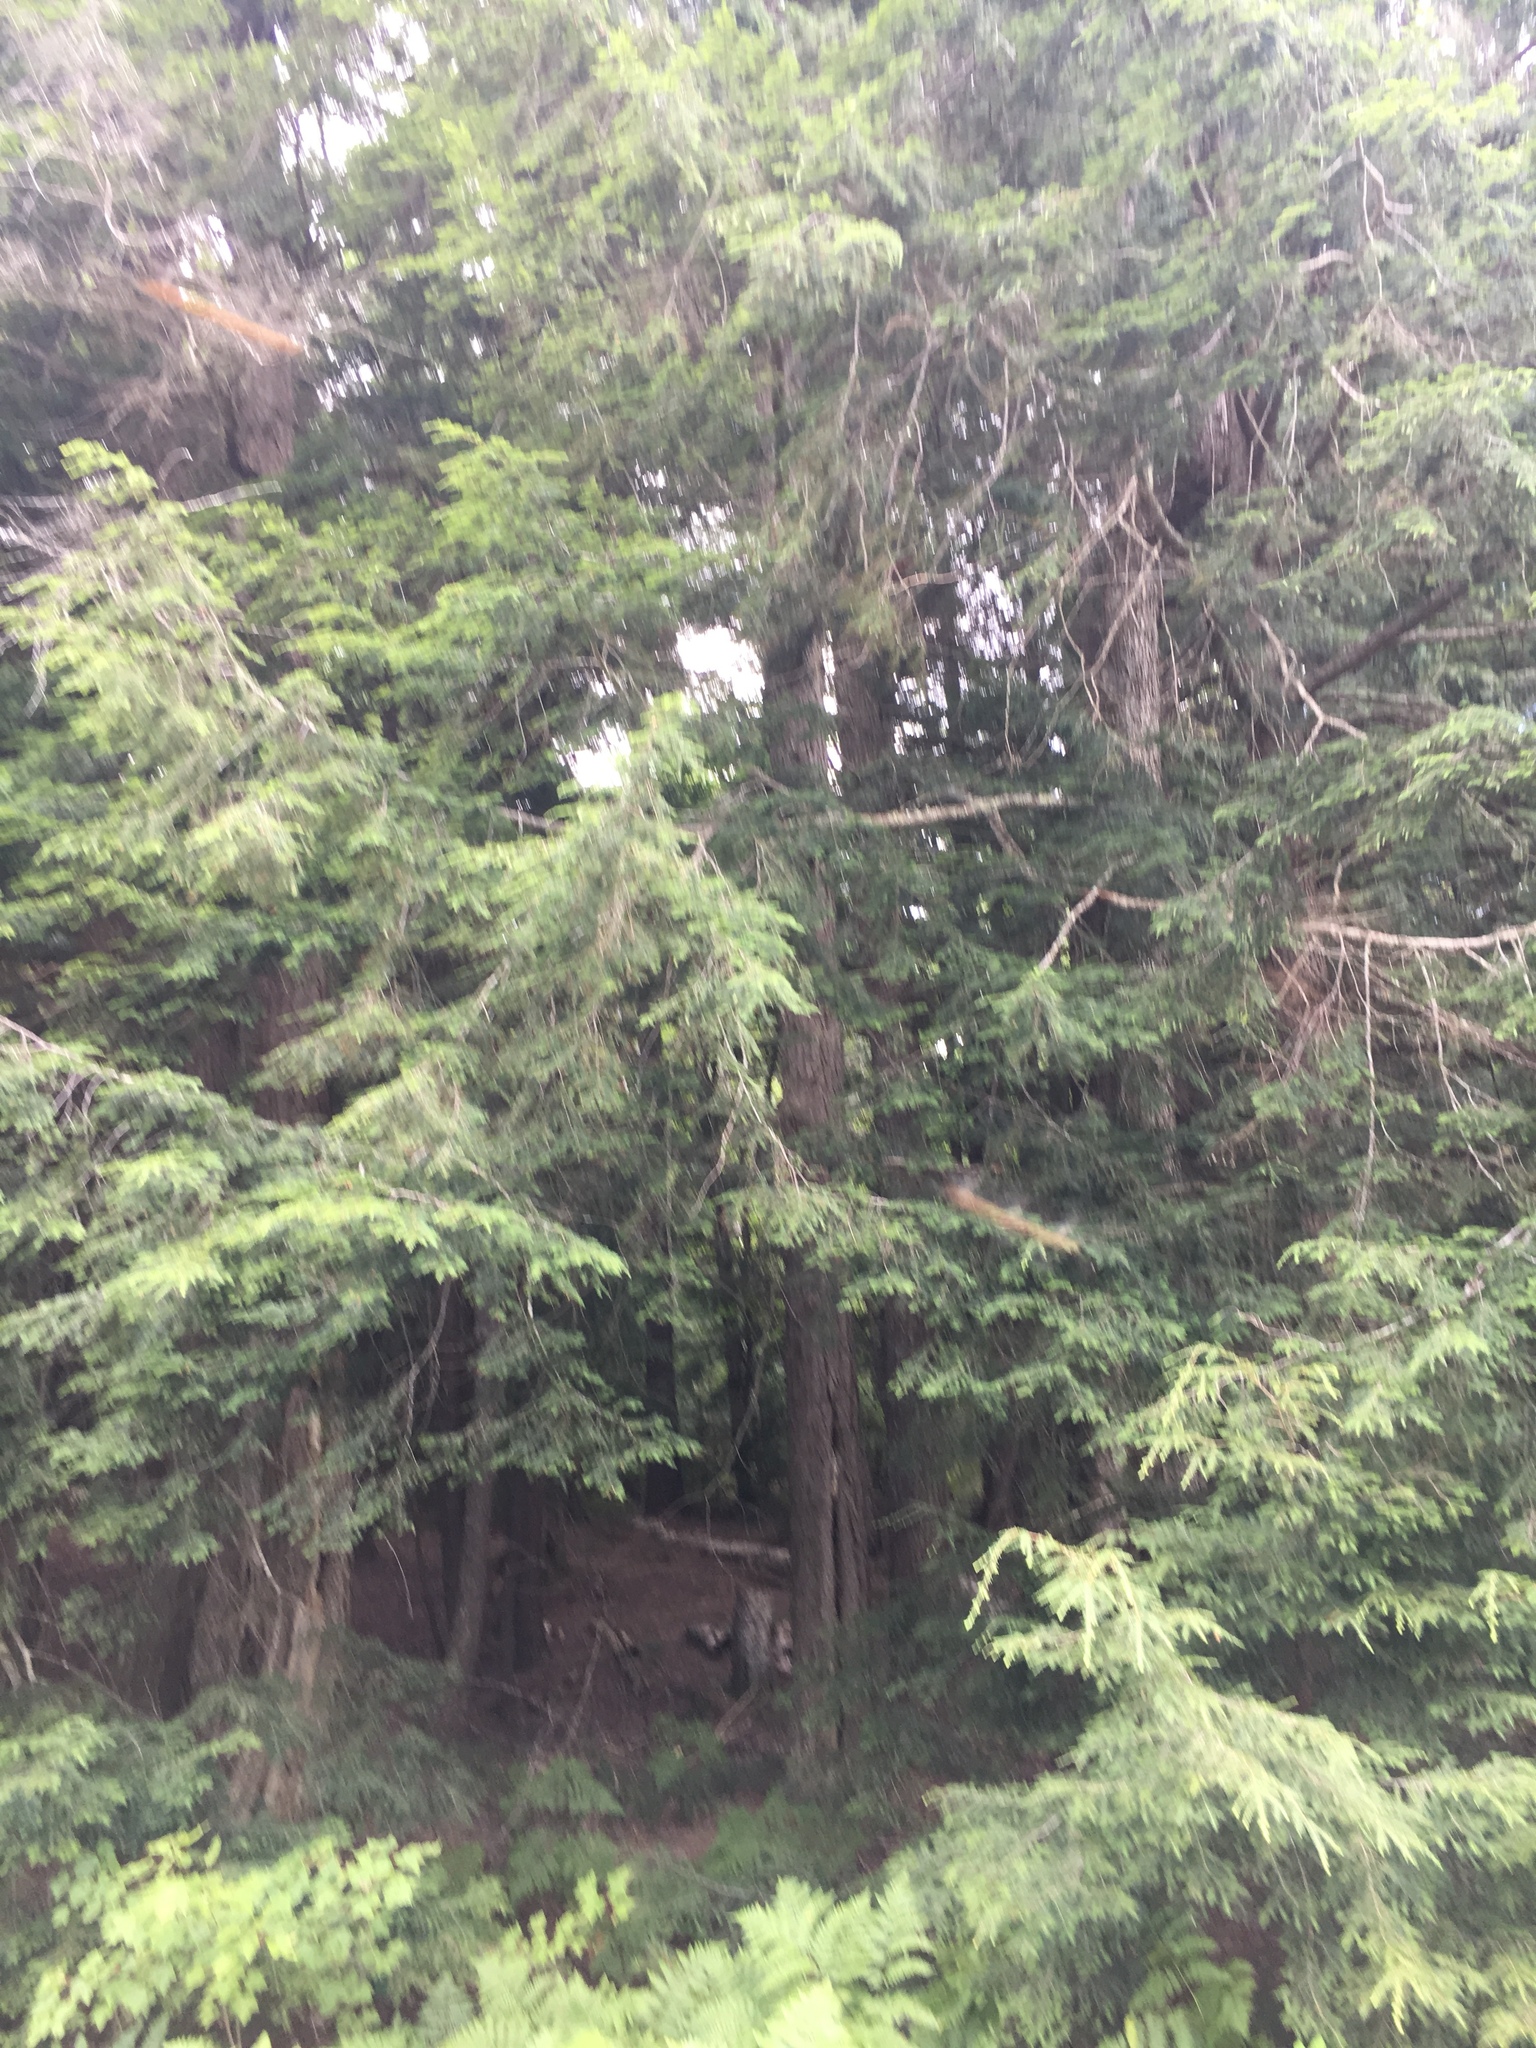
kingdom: Plantae
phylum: Tracheophyta
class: Pinopsida
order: Pinales
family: Pinaceae
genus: Tsuga
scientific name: Tsuga canadensis
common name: Eastern hemlock
